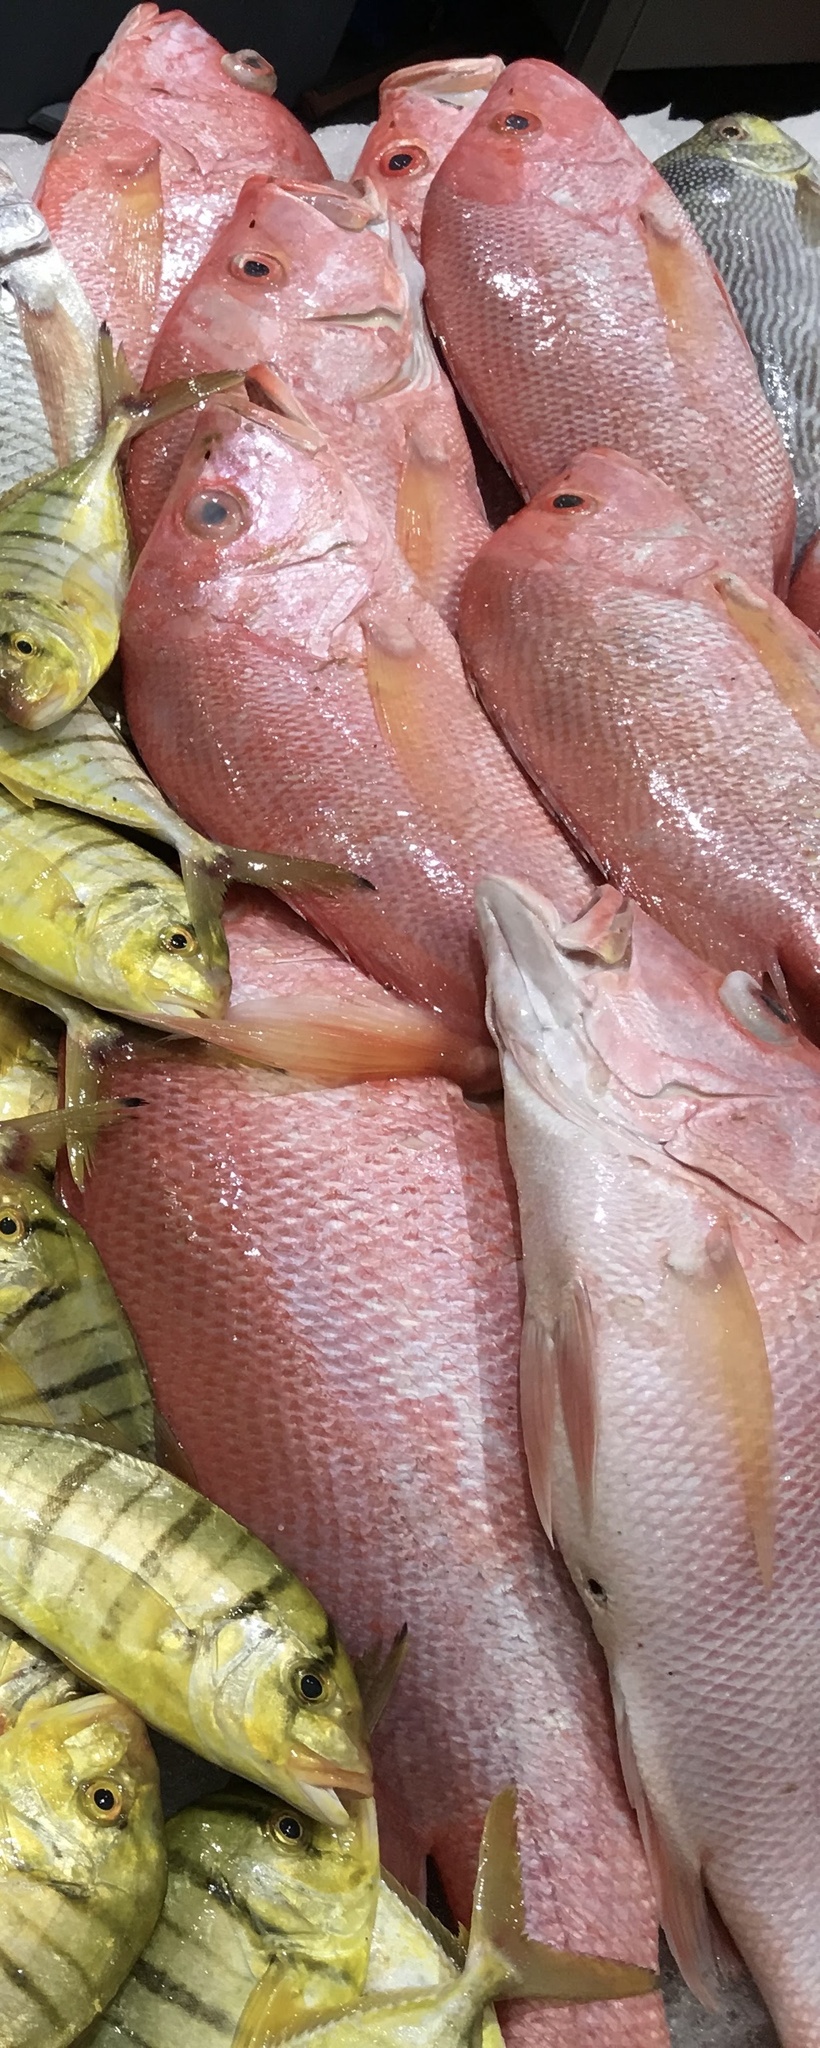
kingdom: Animalia
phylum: Chordata
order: Perciformes
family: Lutjanidae
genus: Lutjanus
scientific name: Lutjanus argentimaculatus
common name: Mangrove red snapper
